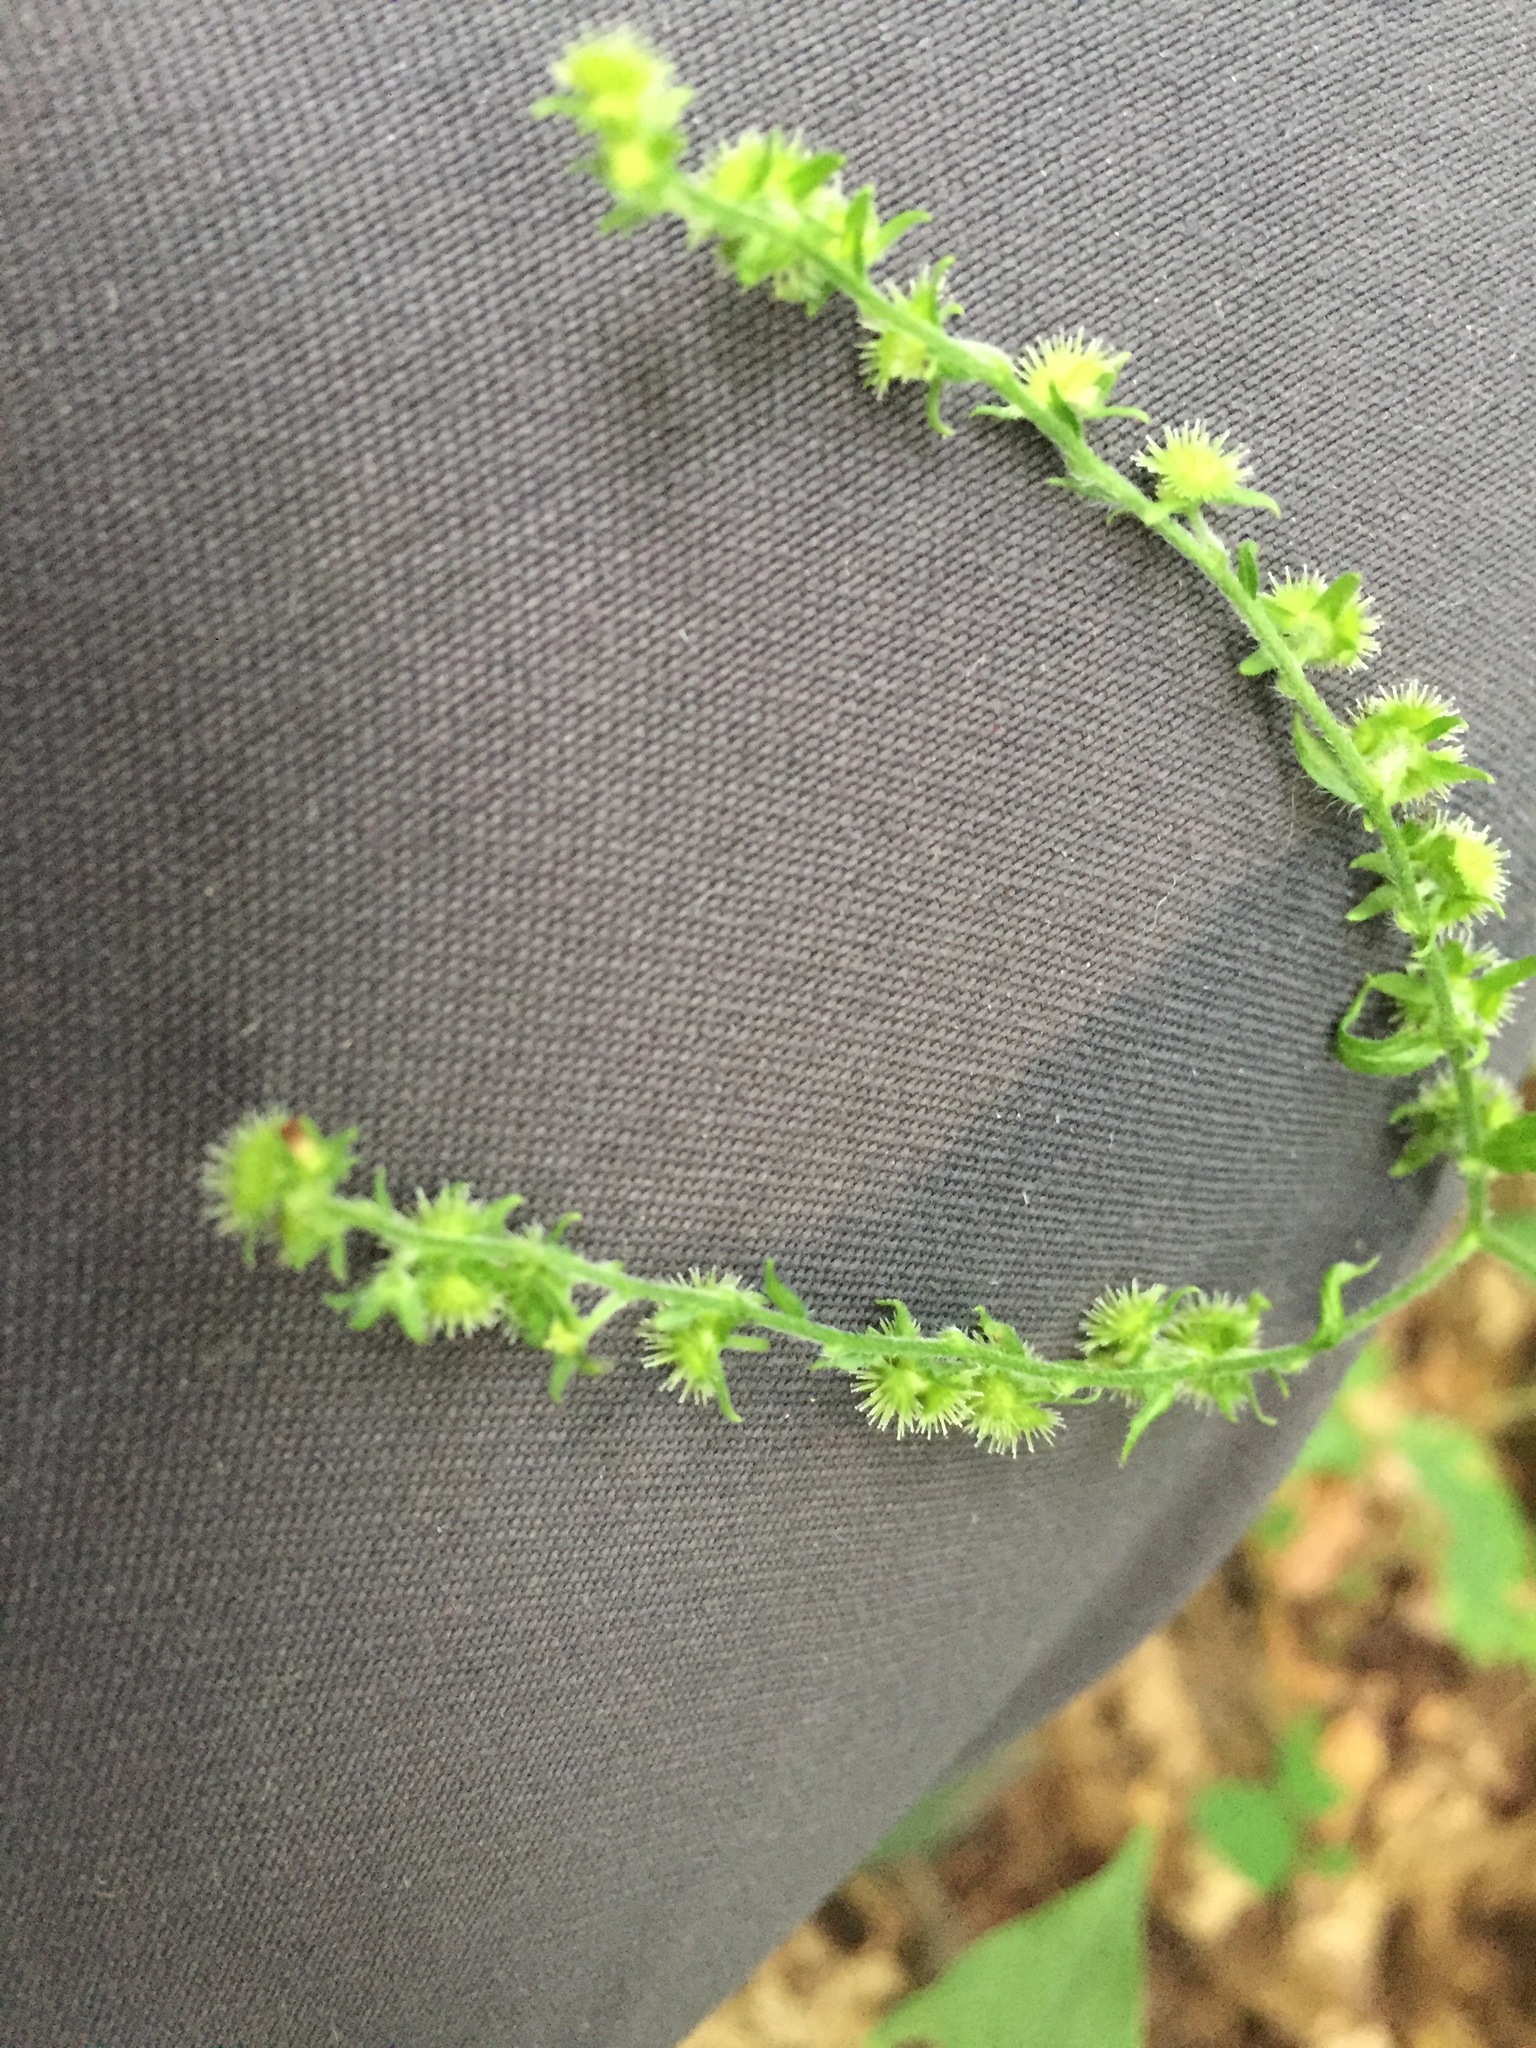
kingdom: Plantae
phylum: Tracheophyta
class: Magnoliopsida
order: Boraginales
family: Boraginaceae
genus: Hackelia
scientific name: Hackelia virginiana
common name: Beggar's-lice
